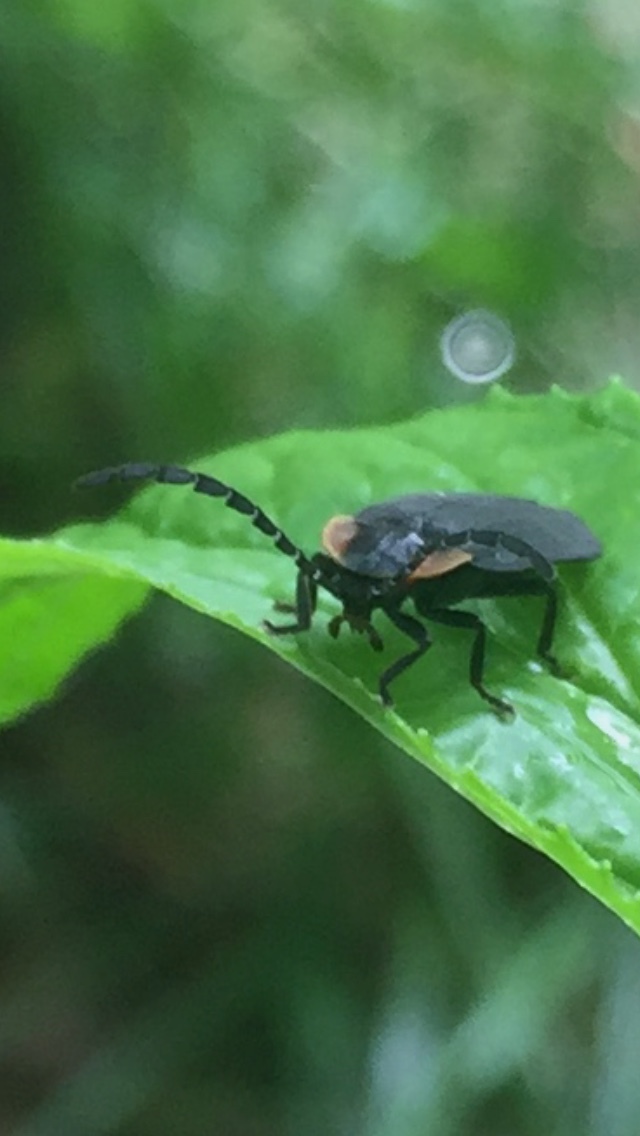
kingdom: Animalia
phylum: Arthropoda
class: Insecta
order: Coleoptera
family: Lampyridae
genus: Lucidota
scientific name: Lucidota atra
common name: Black firefly
